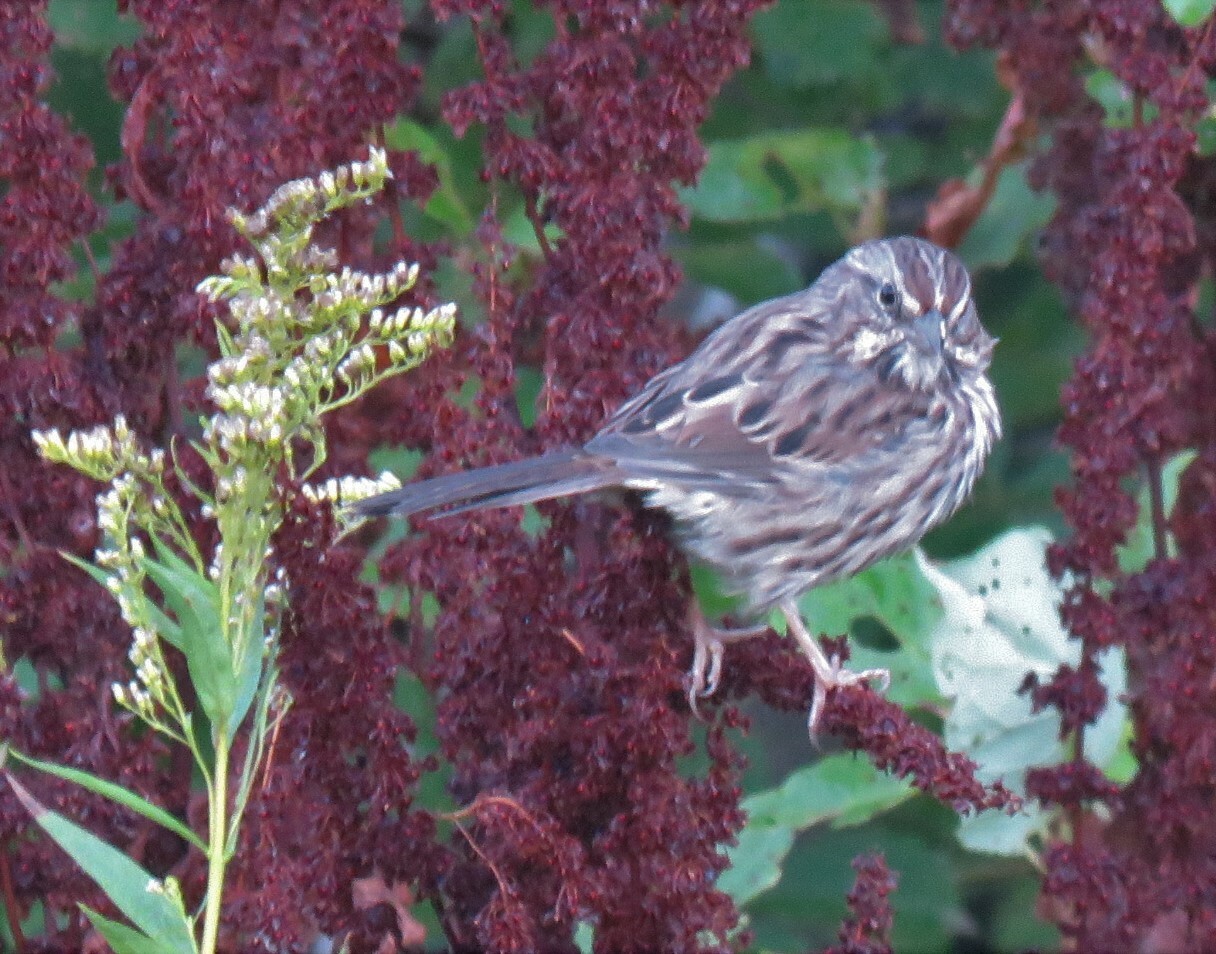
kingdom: Animalia
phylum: Chordata
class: Aves
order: Passeriformes
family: Passerellidae
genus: Melospiza
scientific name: Melospiza melodia
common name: Song sparrow
